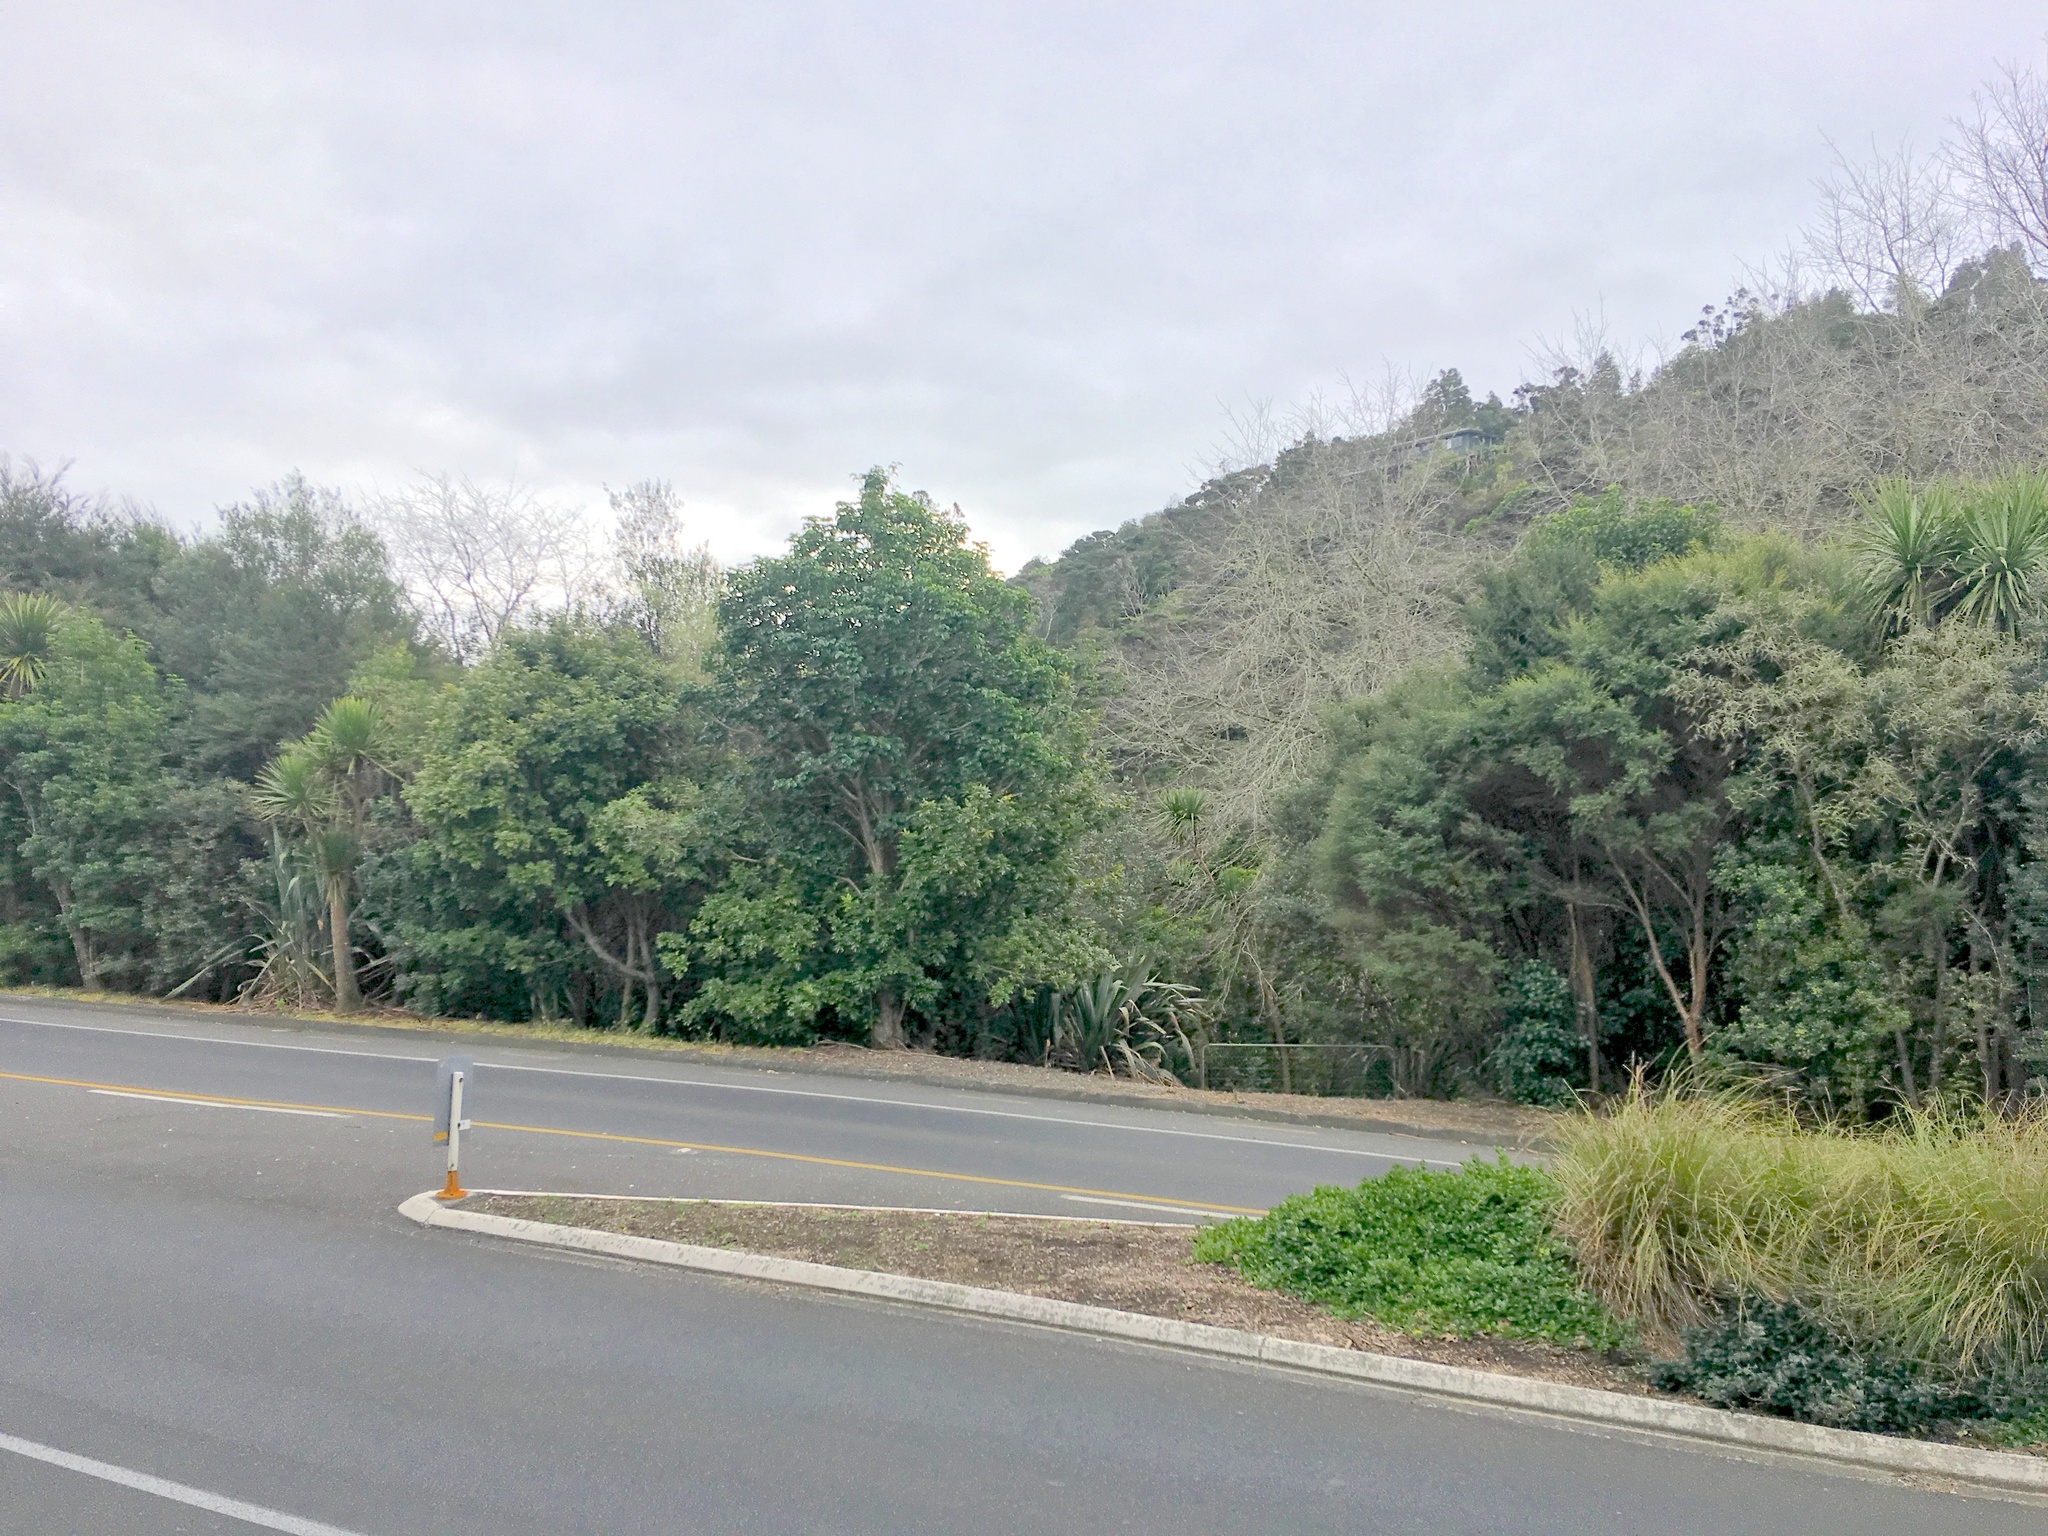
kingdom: Plantae
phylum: Tracheophyta
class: Magnoliopsida
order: Sapindales
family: Sapindaceae
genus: Alectryon
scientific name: Alectryon excelsus
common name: Three kings titoki
